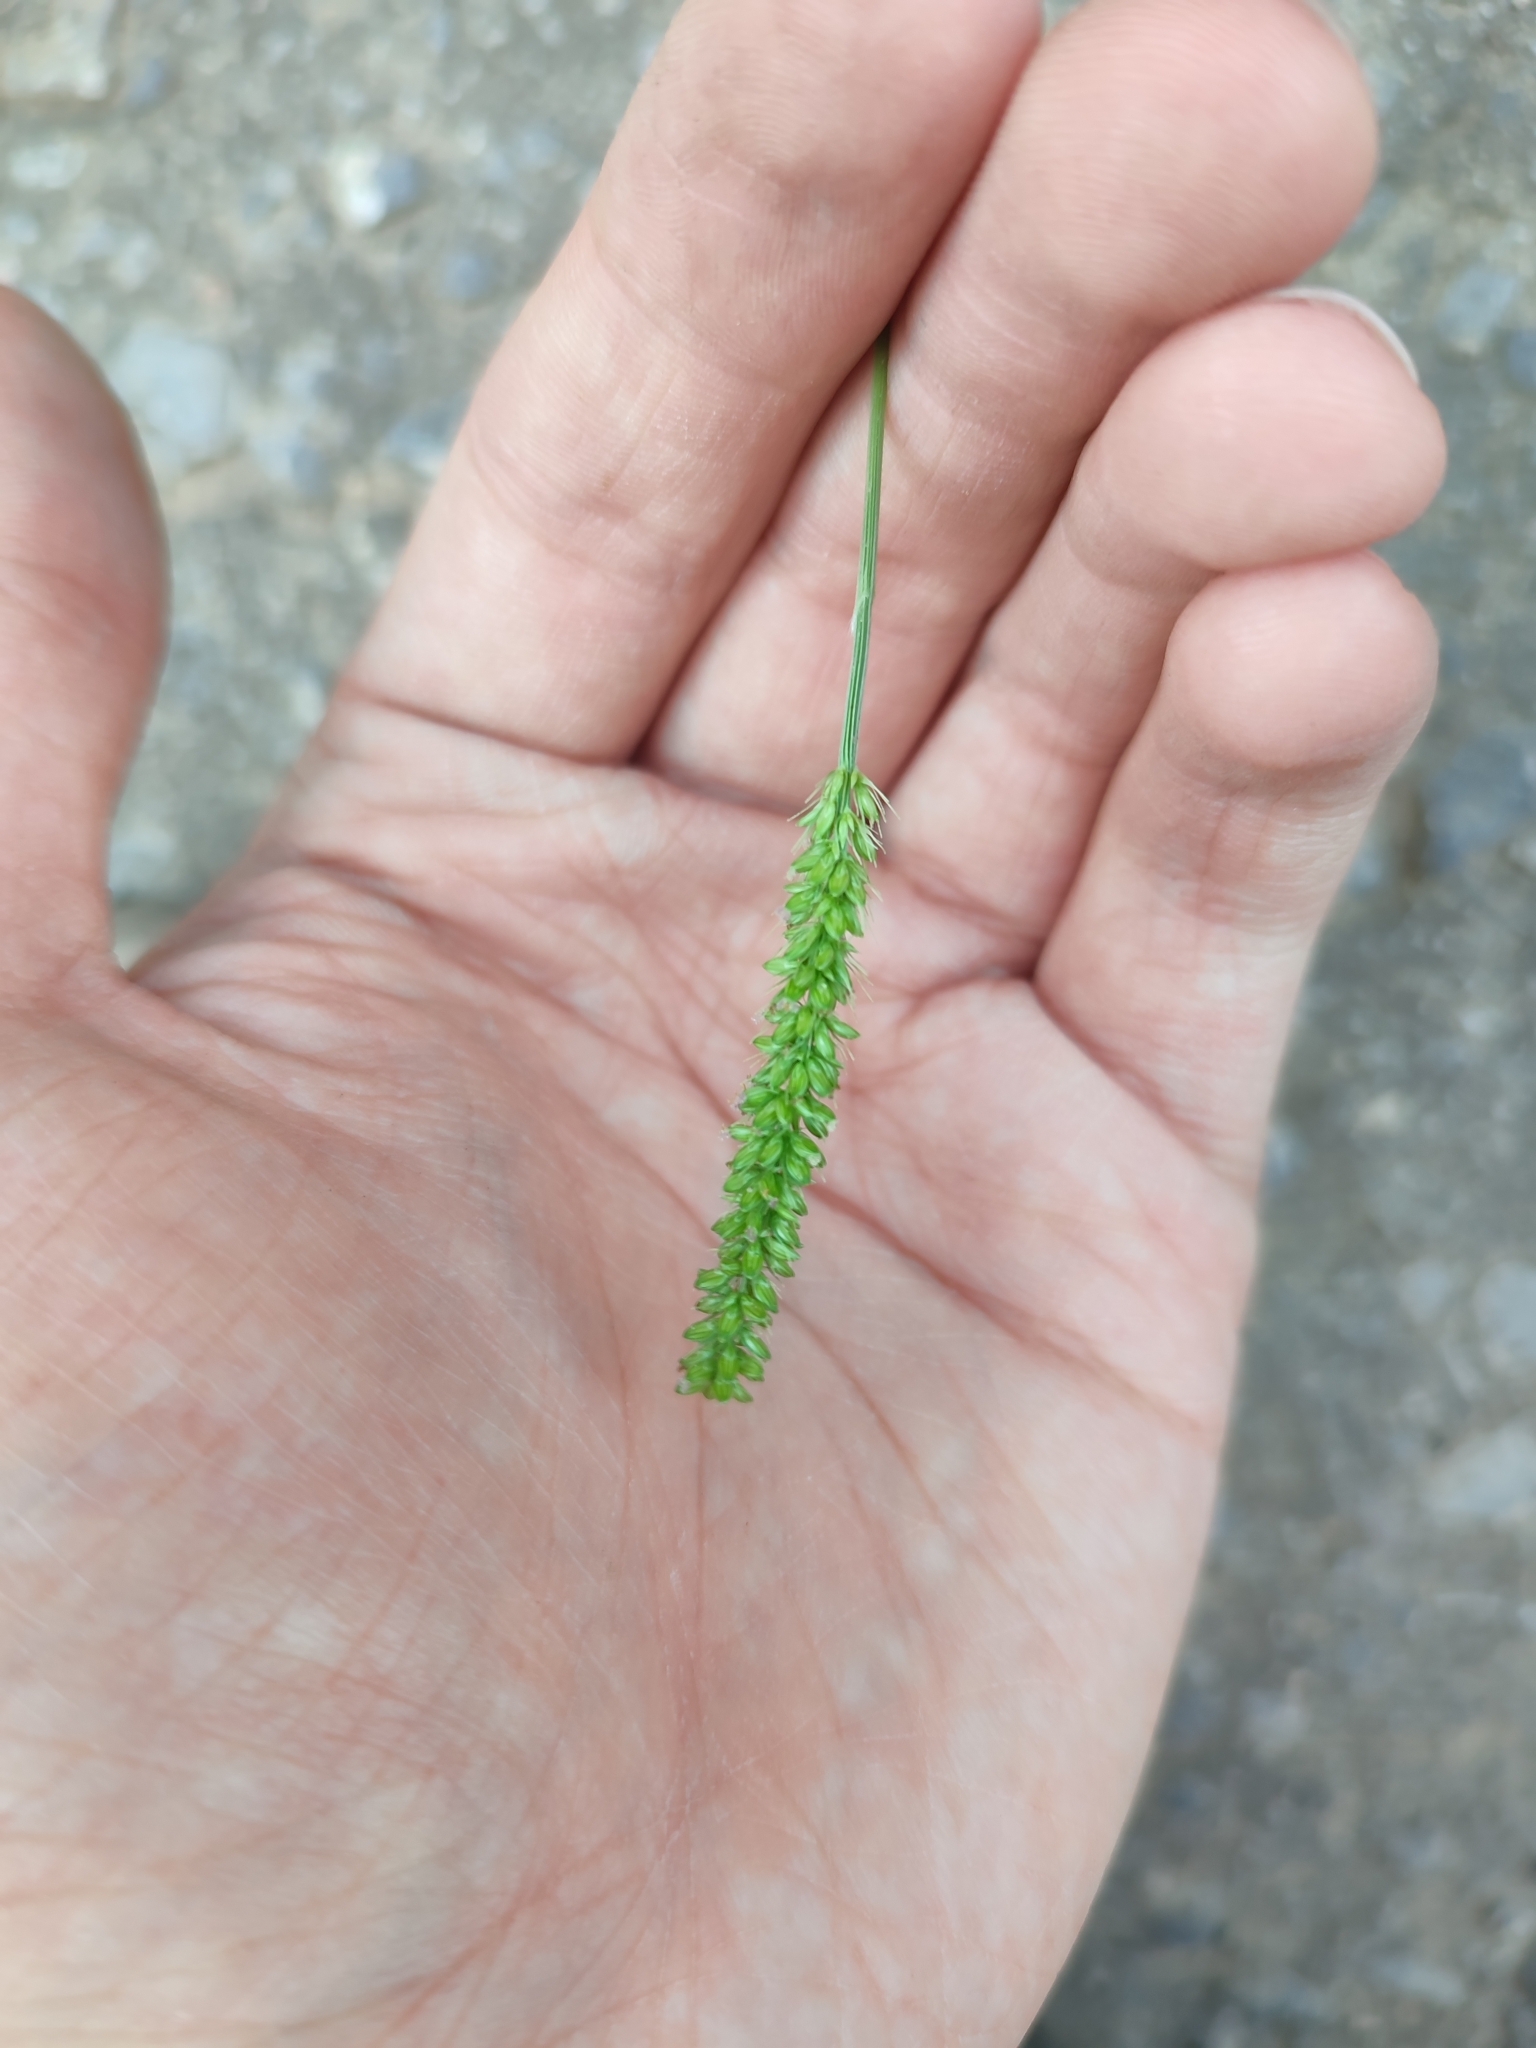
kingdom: Plantae
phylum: Tracheophyta
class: Liliopsida
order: Poales
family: Poaceae
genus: Setaria
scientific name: Setaria verticillata
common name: Hooked bristlegrass
